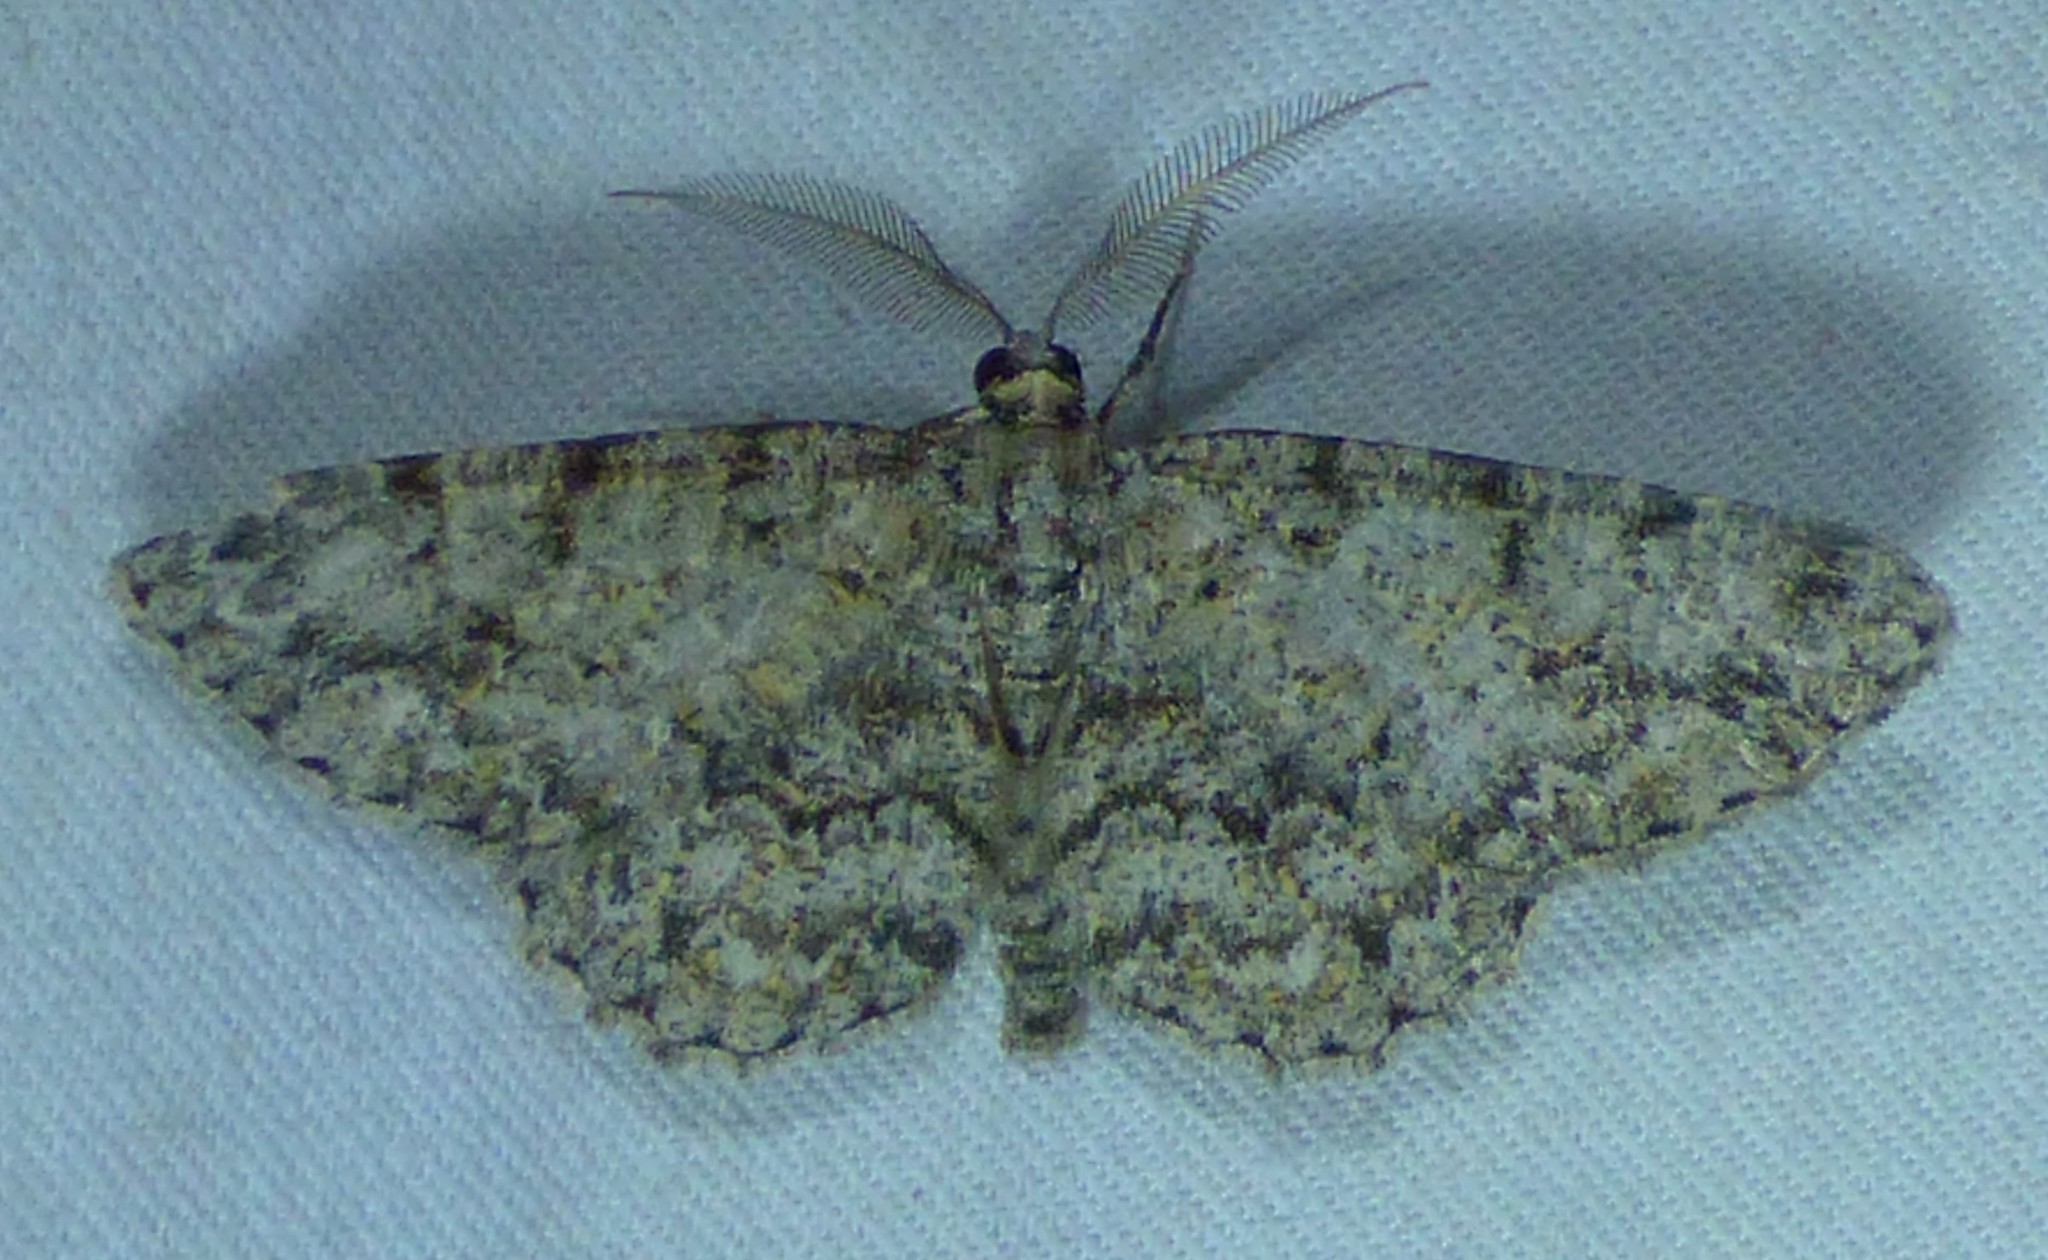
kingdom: Animalia
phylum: Arthropoda
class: Insecta
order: Lepidoptera
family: Geometridae
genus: Protoboarmia
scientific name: Protoboarmia porcelaria
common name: Porcelain gray
